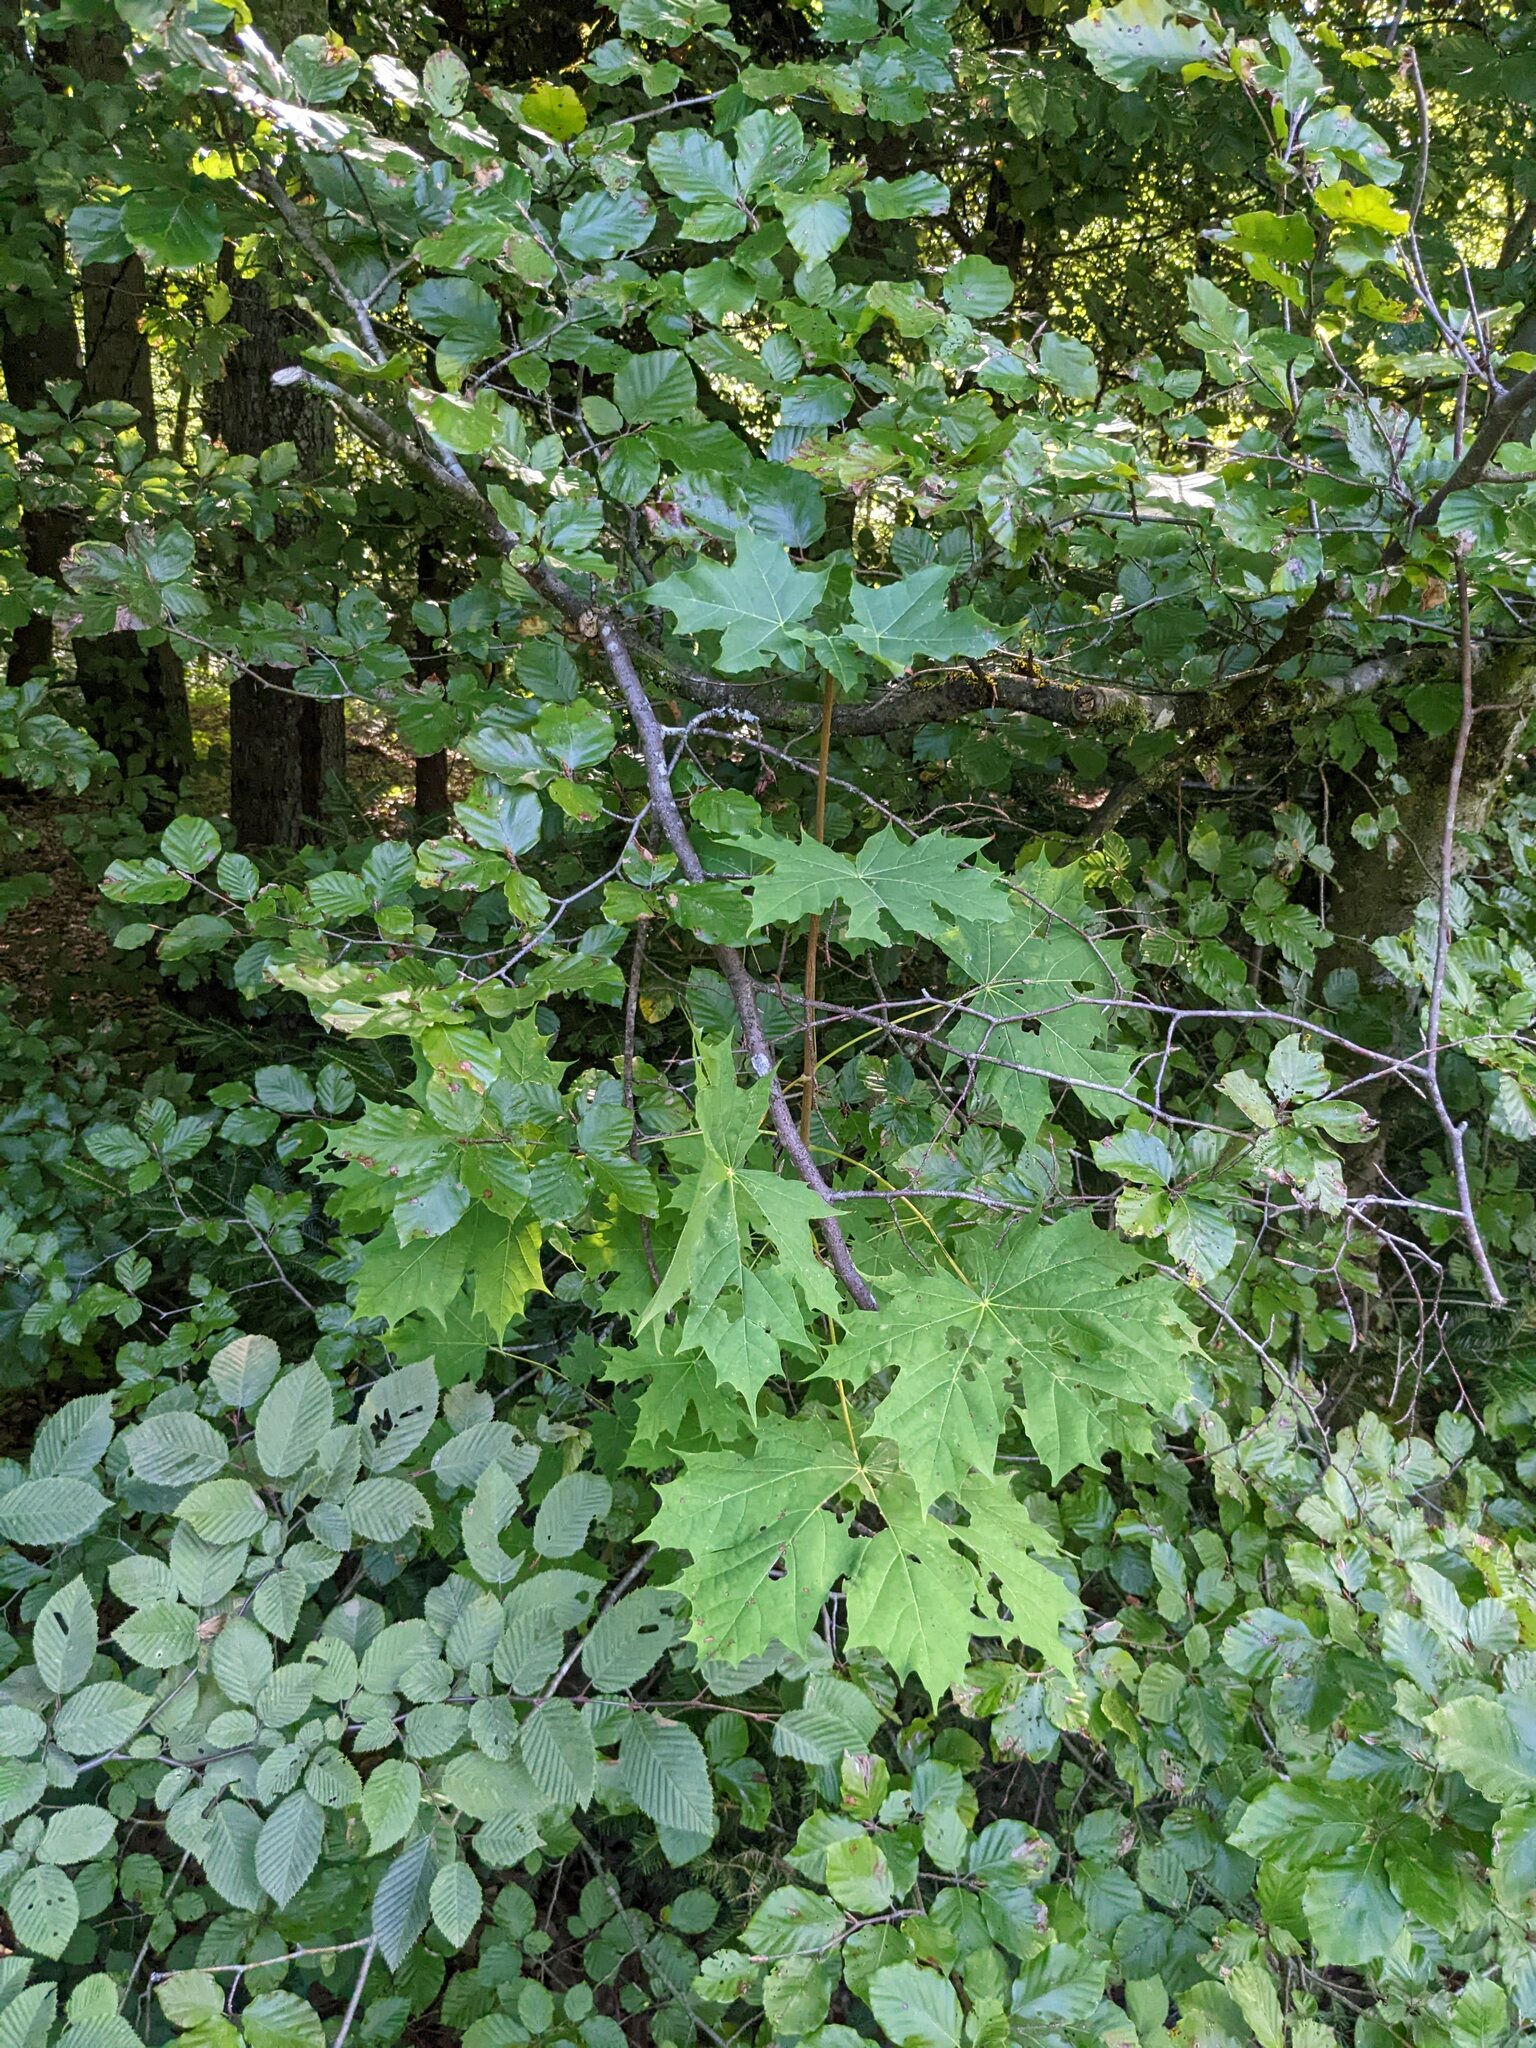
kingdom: Plantae
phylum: Tracheophyta
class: Magnoliopsida
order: Sapindales
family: Sapindaceae
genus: Acer
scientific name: Acer platanoides
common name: Norway maple
